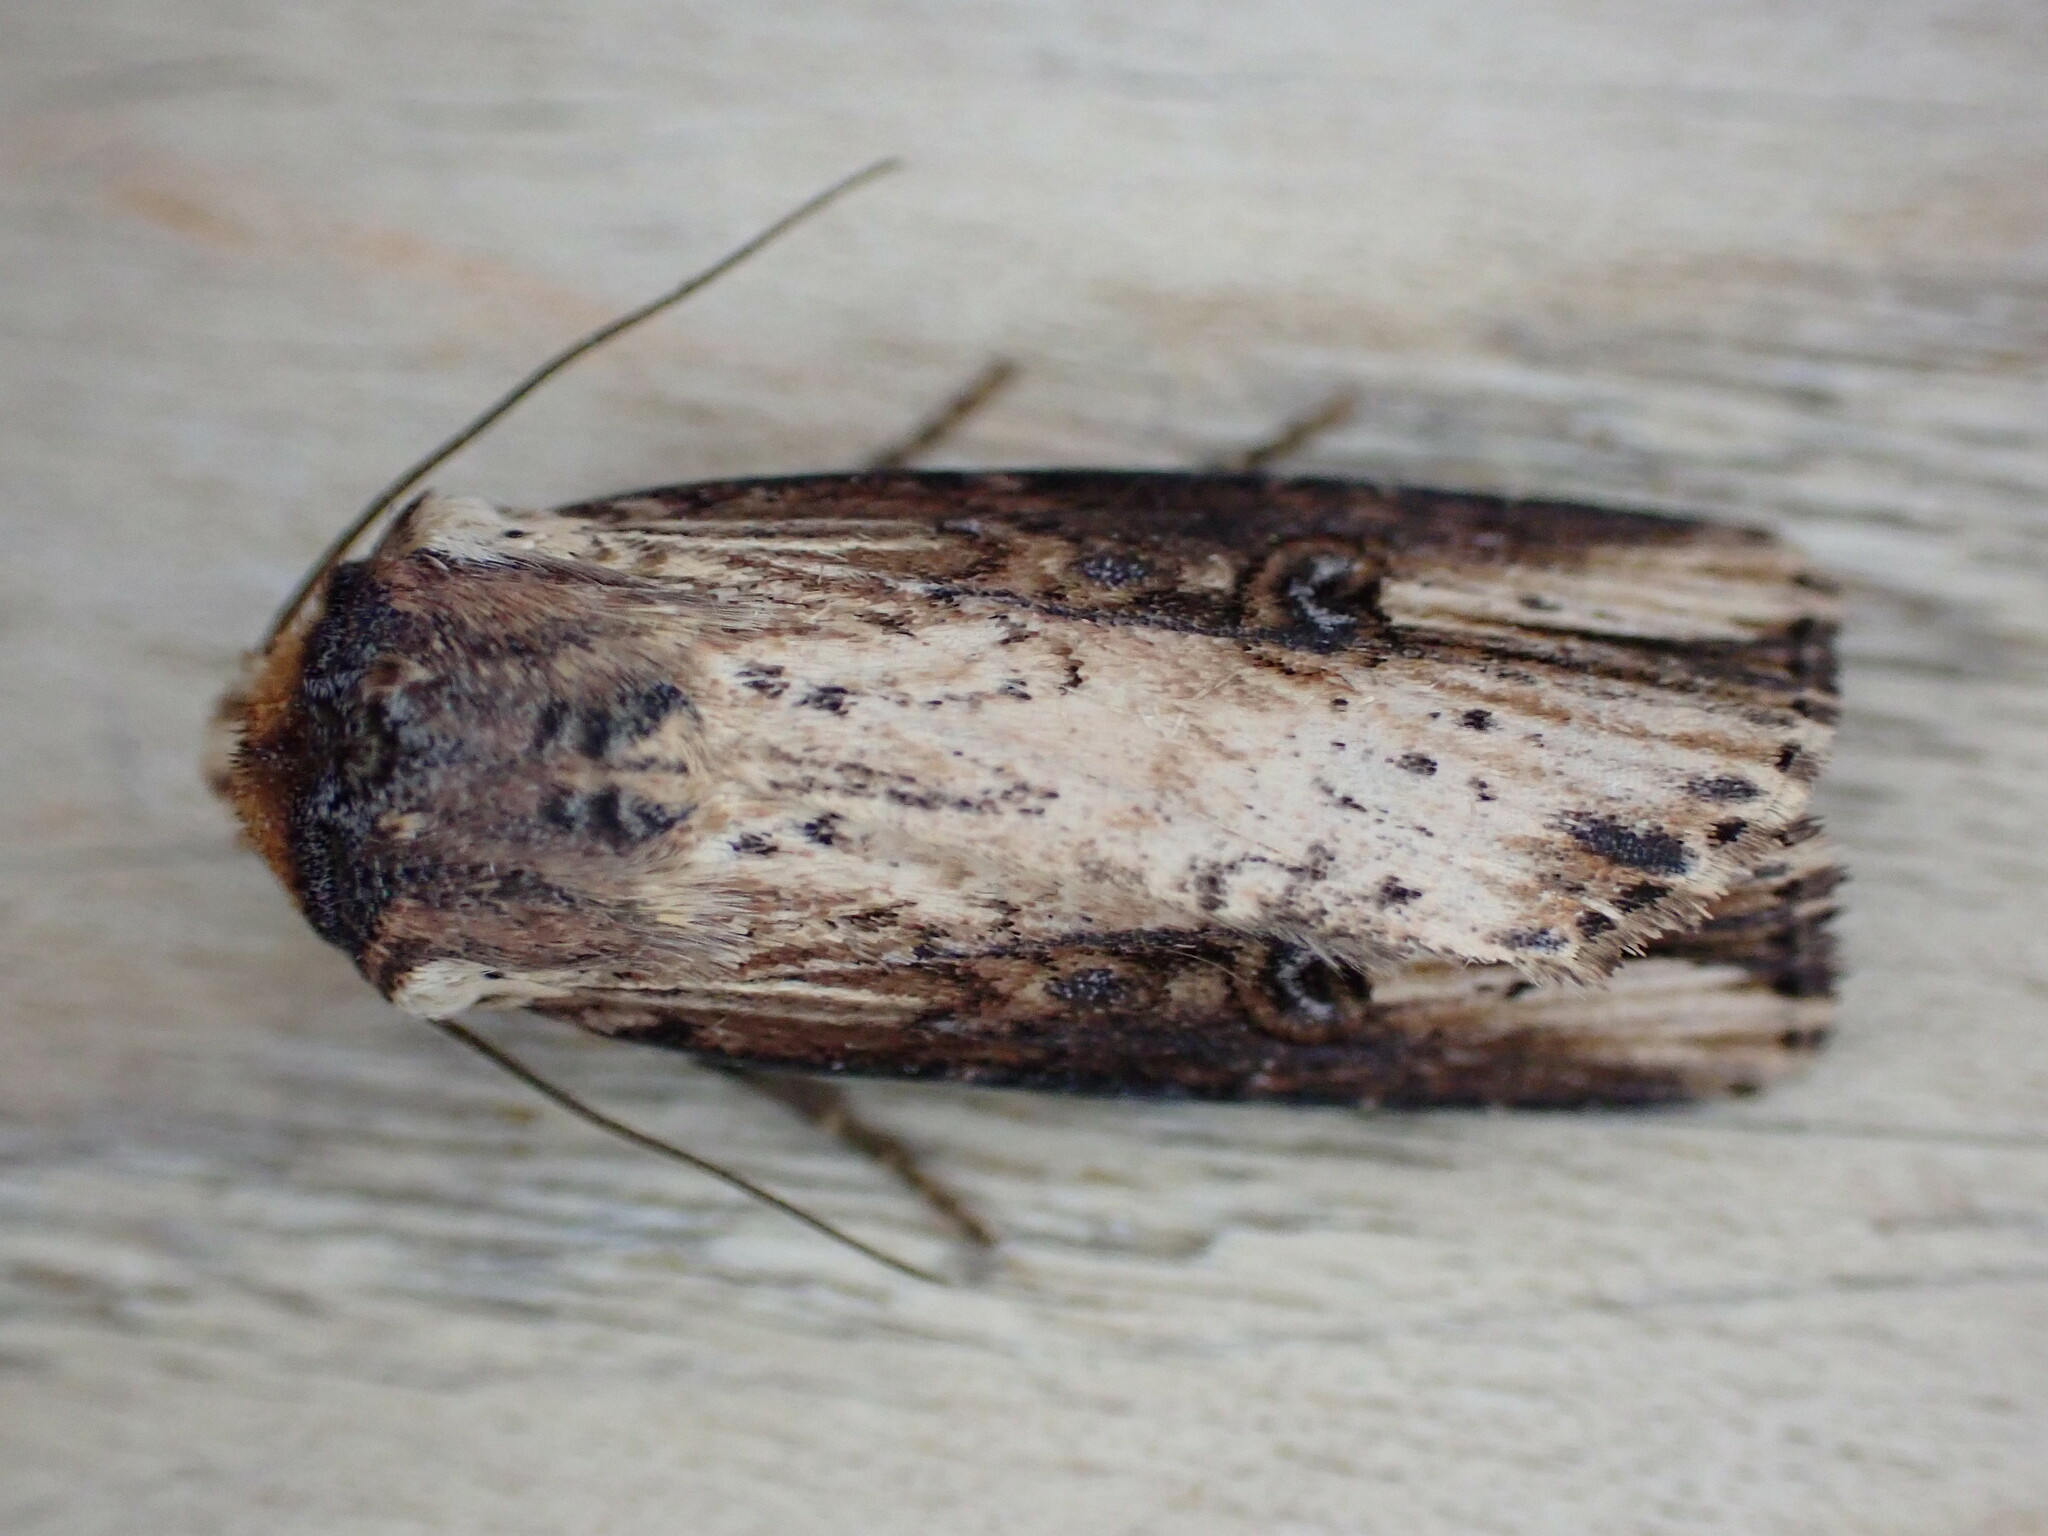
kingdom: Animalia
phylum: Arthropoda
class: Insecta
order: Lepidoptera
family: Noctuidae
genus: Axylia
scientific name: Axylia putris
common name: Flame
